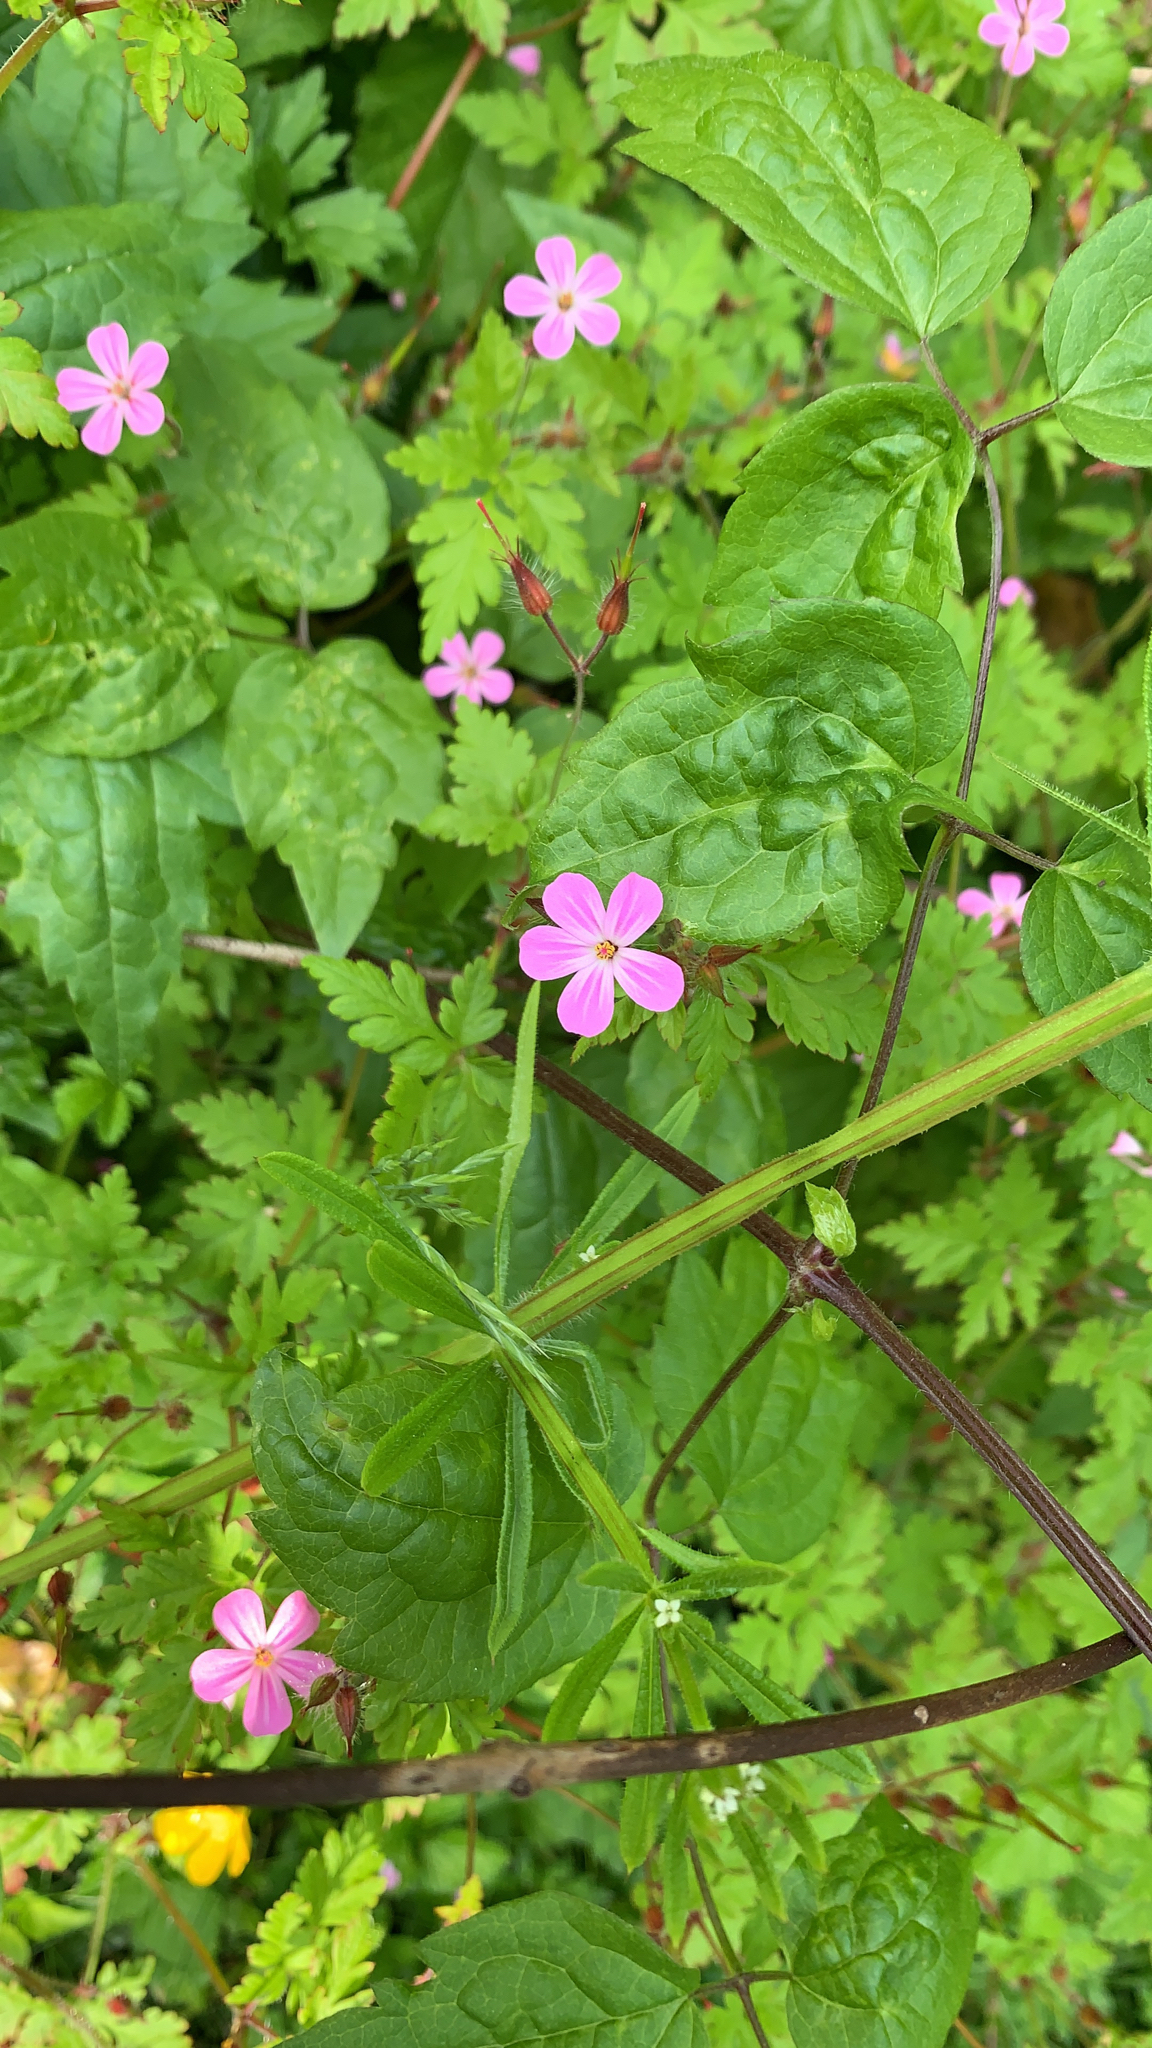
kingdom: Plantae
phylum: Tracheophyta
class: Magnoliopsida
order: Geraniales
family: Geraniaceae
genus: Geranium
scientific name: Geranium robertianum
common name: Herb-robert
